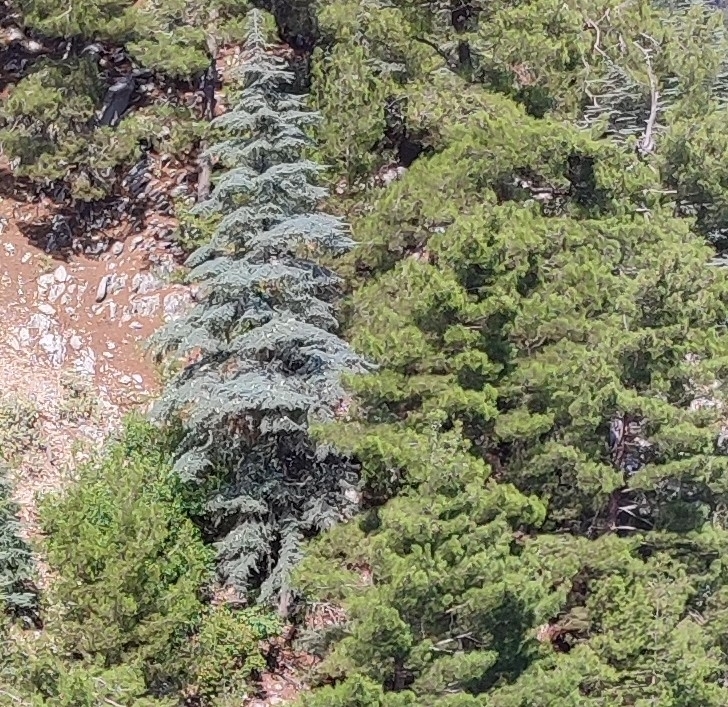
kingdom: Plantae
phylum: Tracheophyta
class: Pinopsida
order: Pinales
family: Pinaceae
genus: Cedrus
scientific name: Cedrus libani
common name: Cedar-of-lebanon
